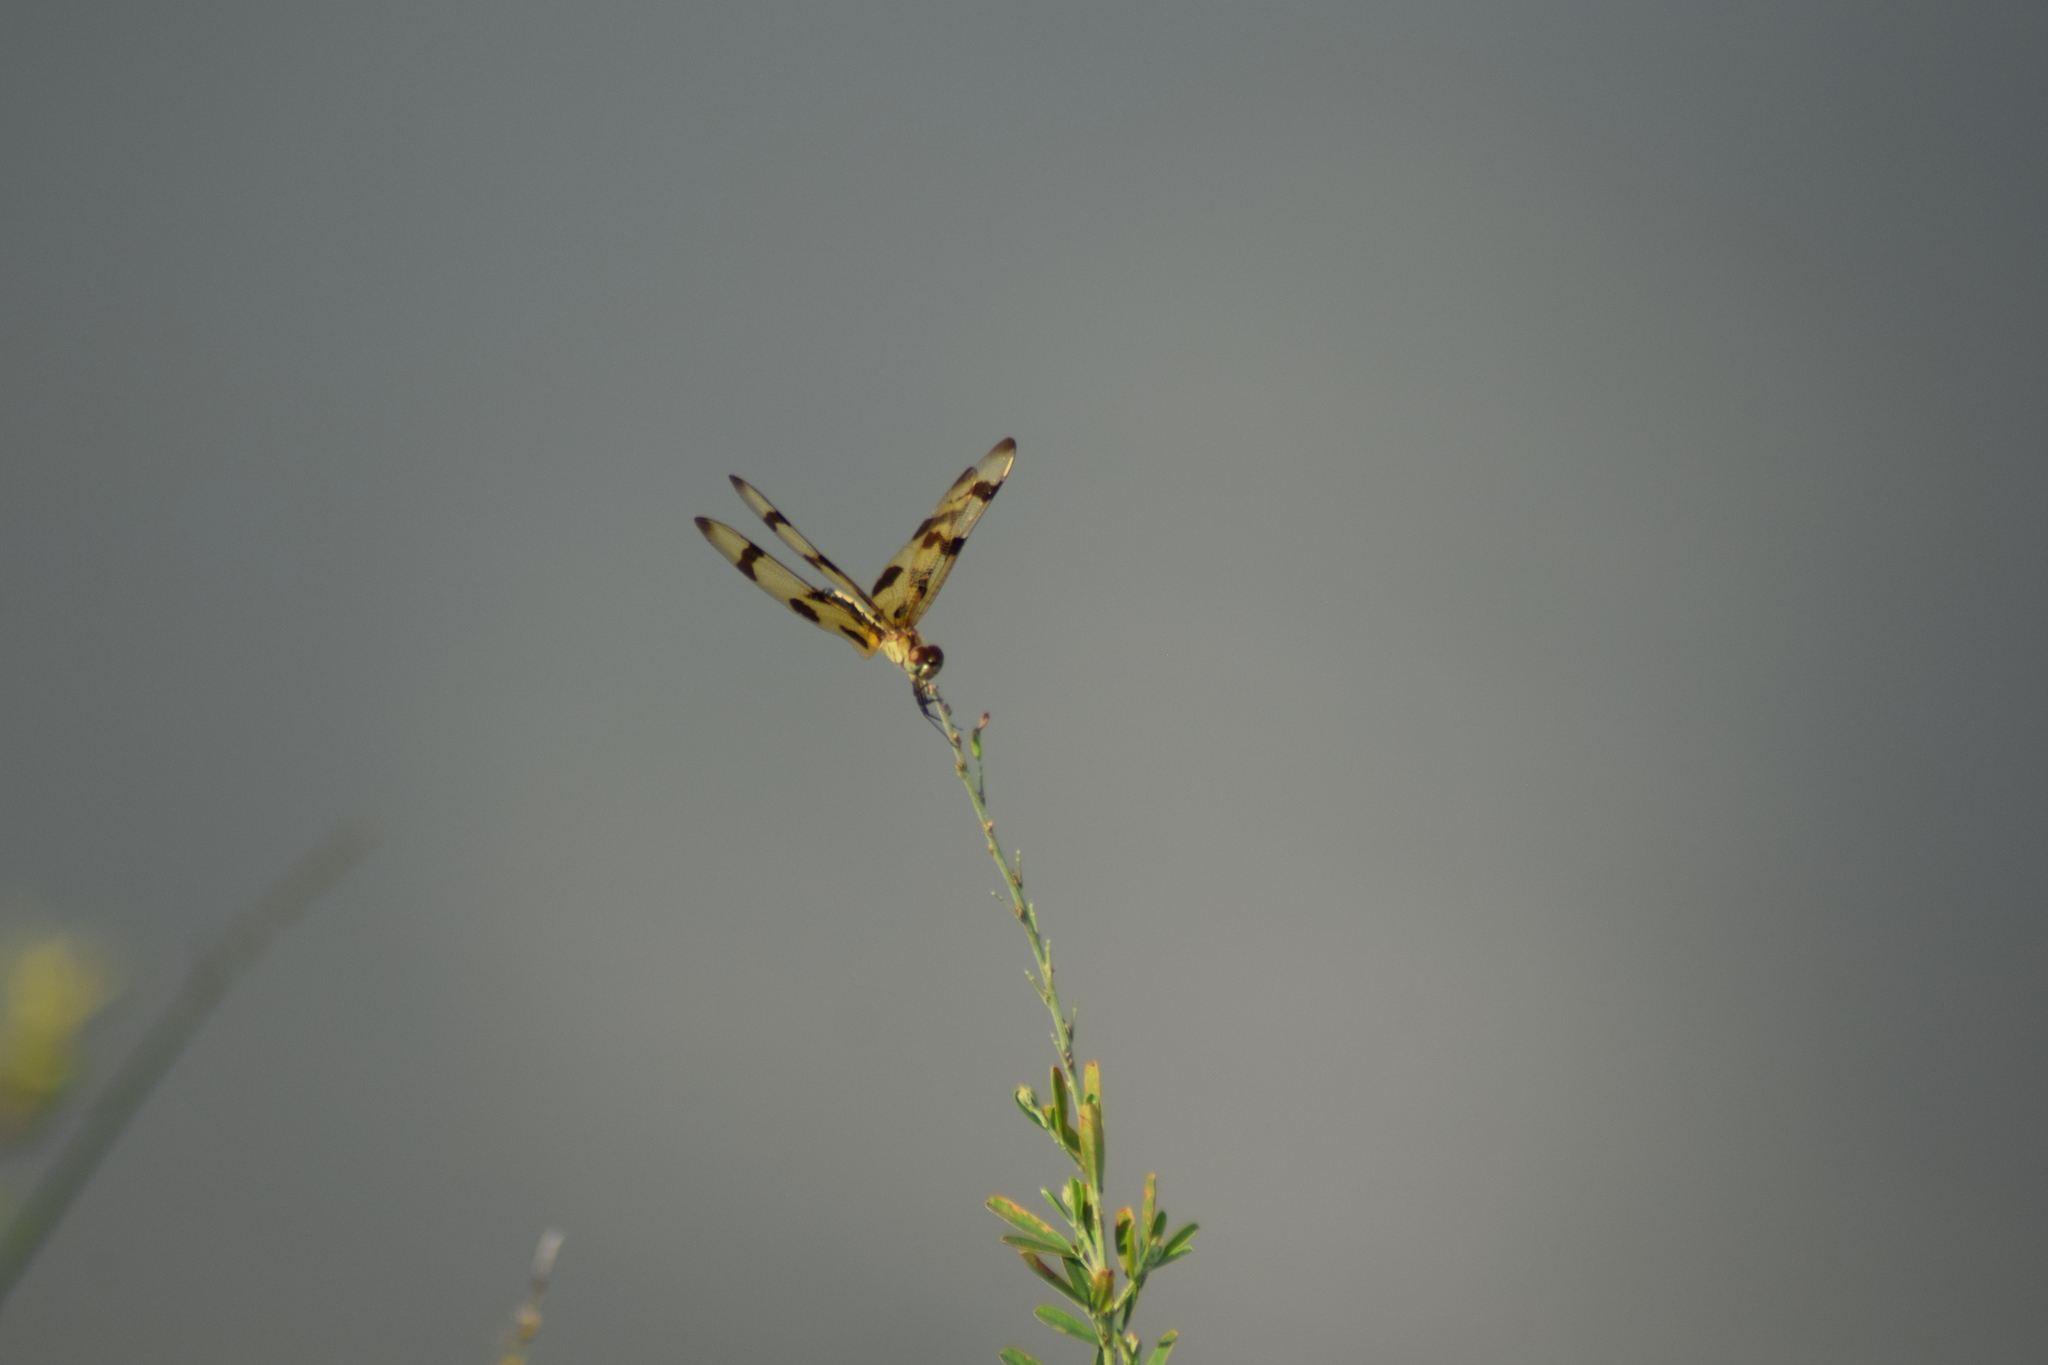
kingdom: Animalia
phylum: Arthropoda
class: Insecta
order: Odonata
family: Libellulidae
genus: Celithemis
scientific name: Celithemis eponina
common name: Halloween pennant
